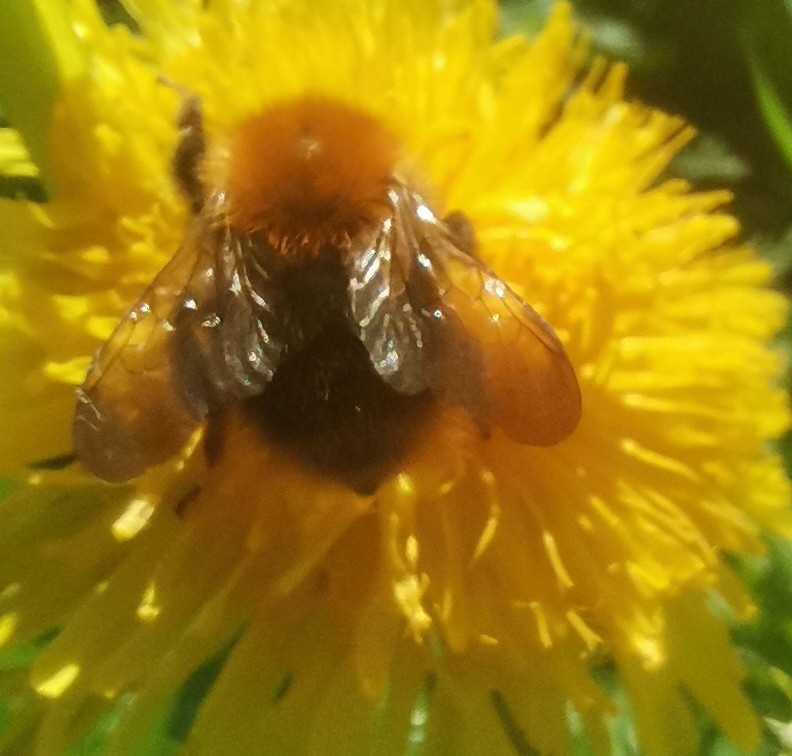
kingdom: Animalia
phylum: Arthropoda
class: Insecta
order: Hymenoptera
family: Apidae
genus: Bombus
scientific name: Bombus pascuorum
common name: Common carder bee
